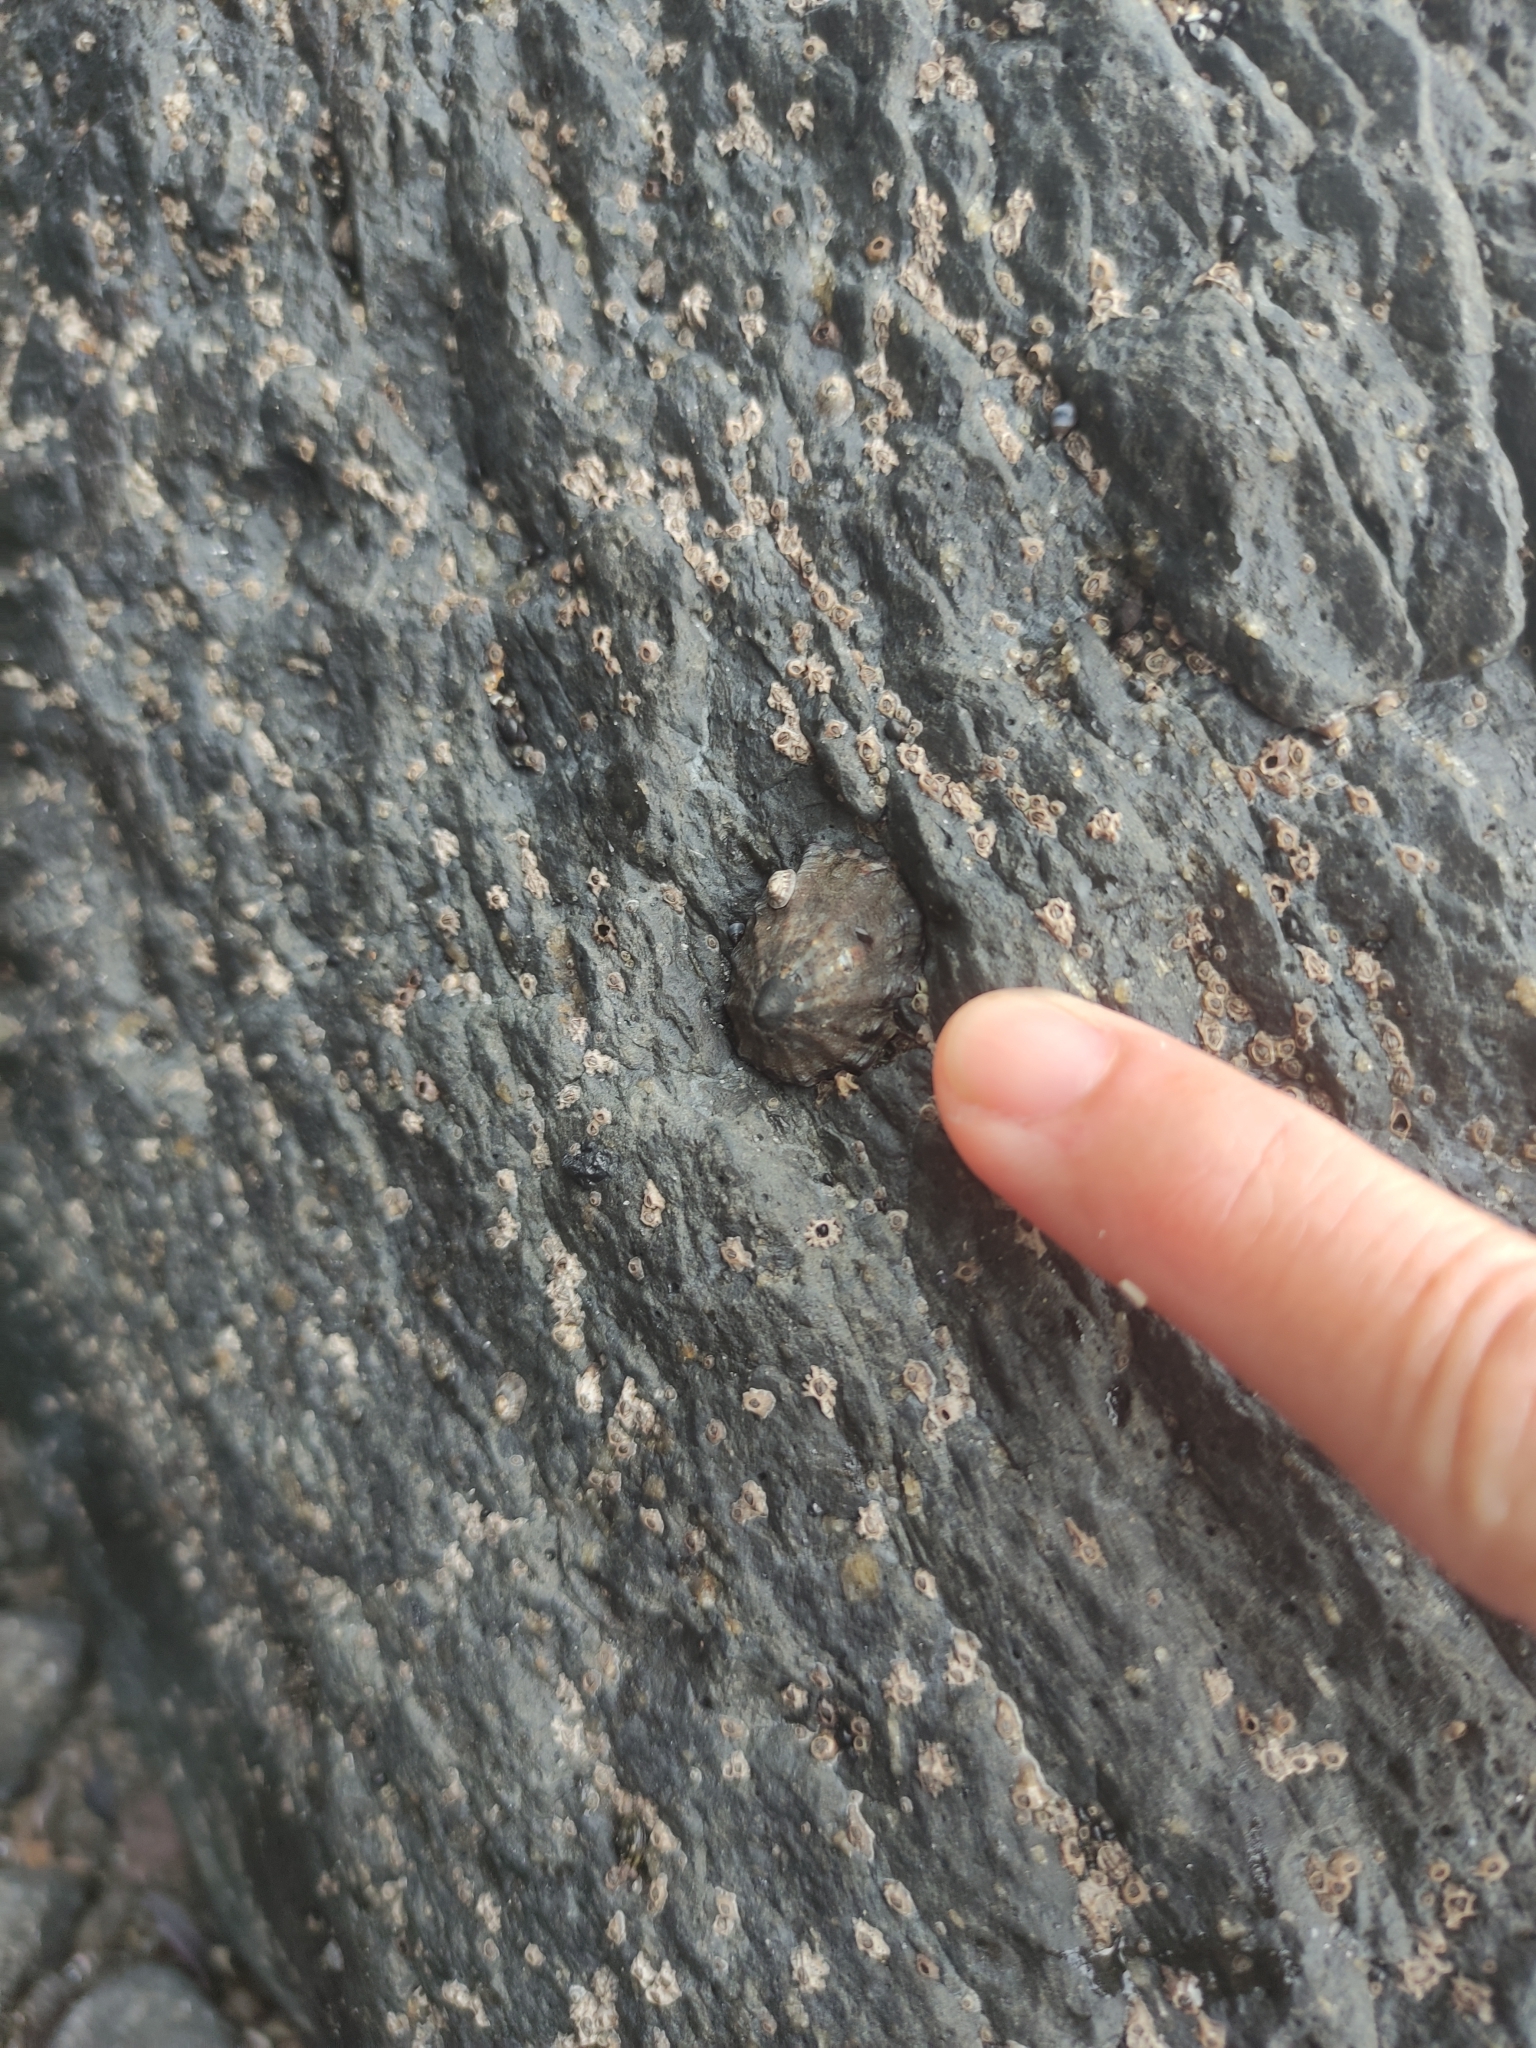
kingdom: Animalia
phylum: Mollusca
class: Gastropoda
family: Nacellidae
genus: Cellana
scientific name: Cellana ornata
